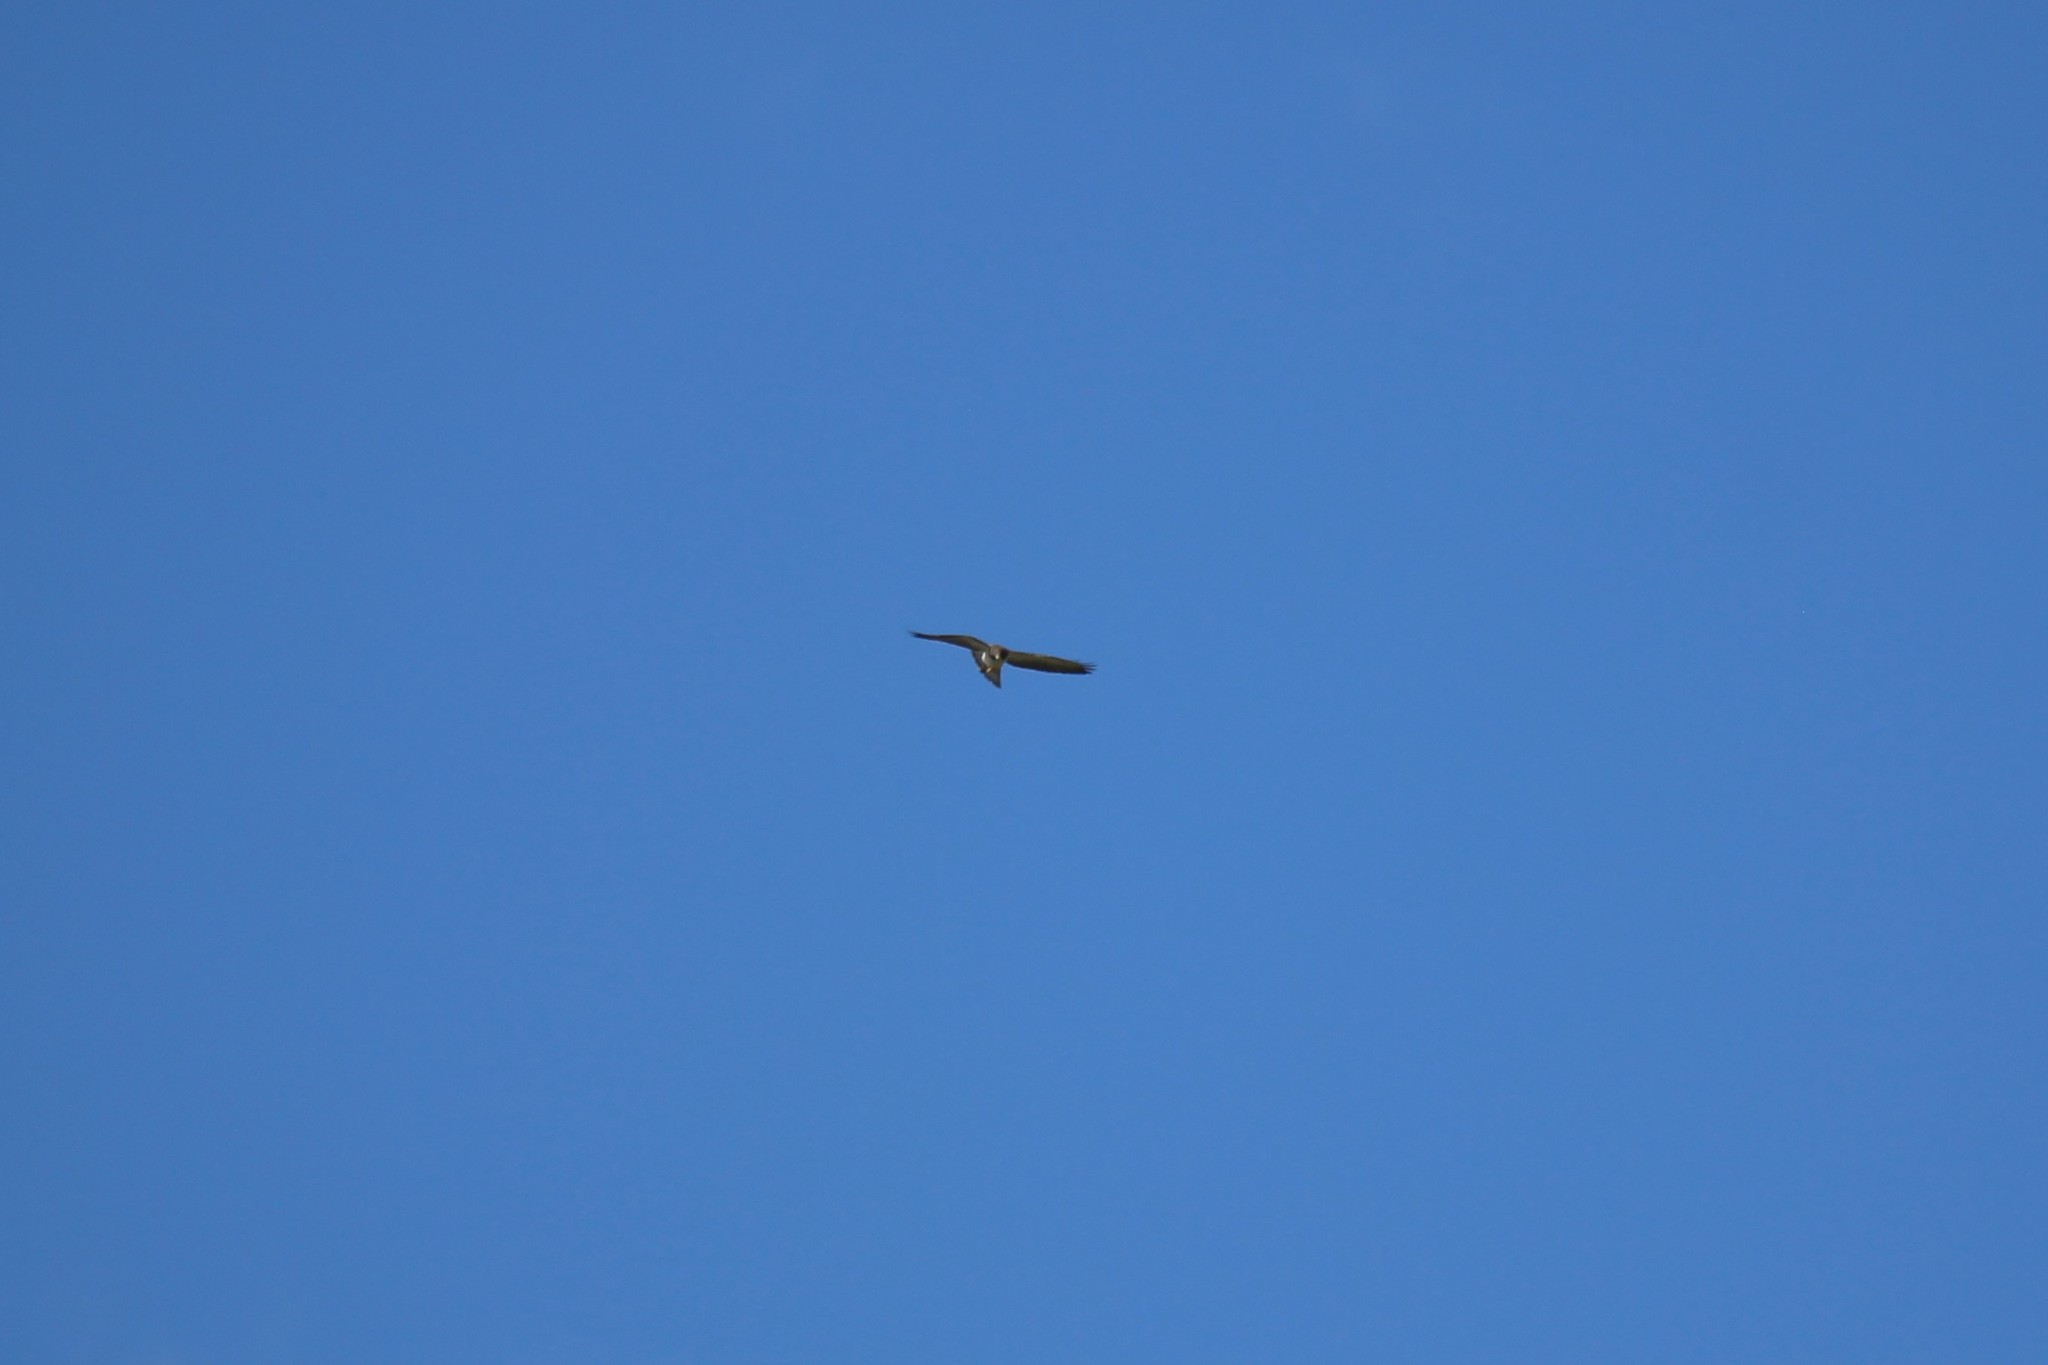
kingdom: Animalia
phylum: Chordata
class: Aves
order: Accipitriformes
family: Accipitridae
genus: Buteo
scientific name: Buteo brachyurus
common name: Short-tailed hawk
